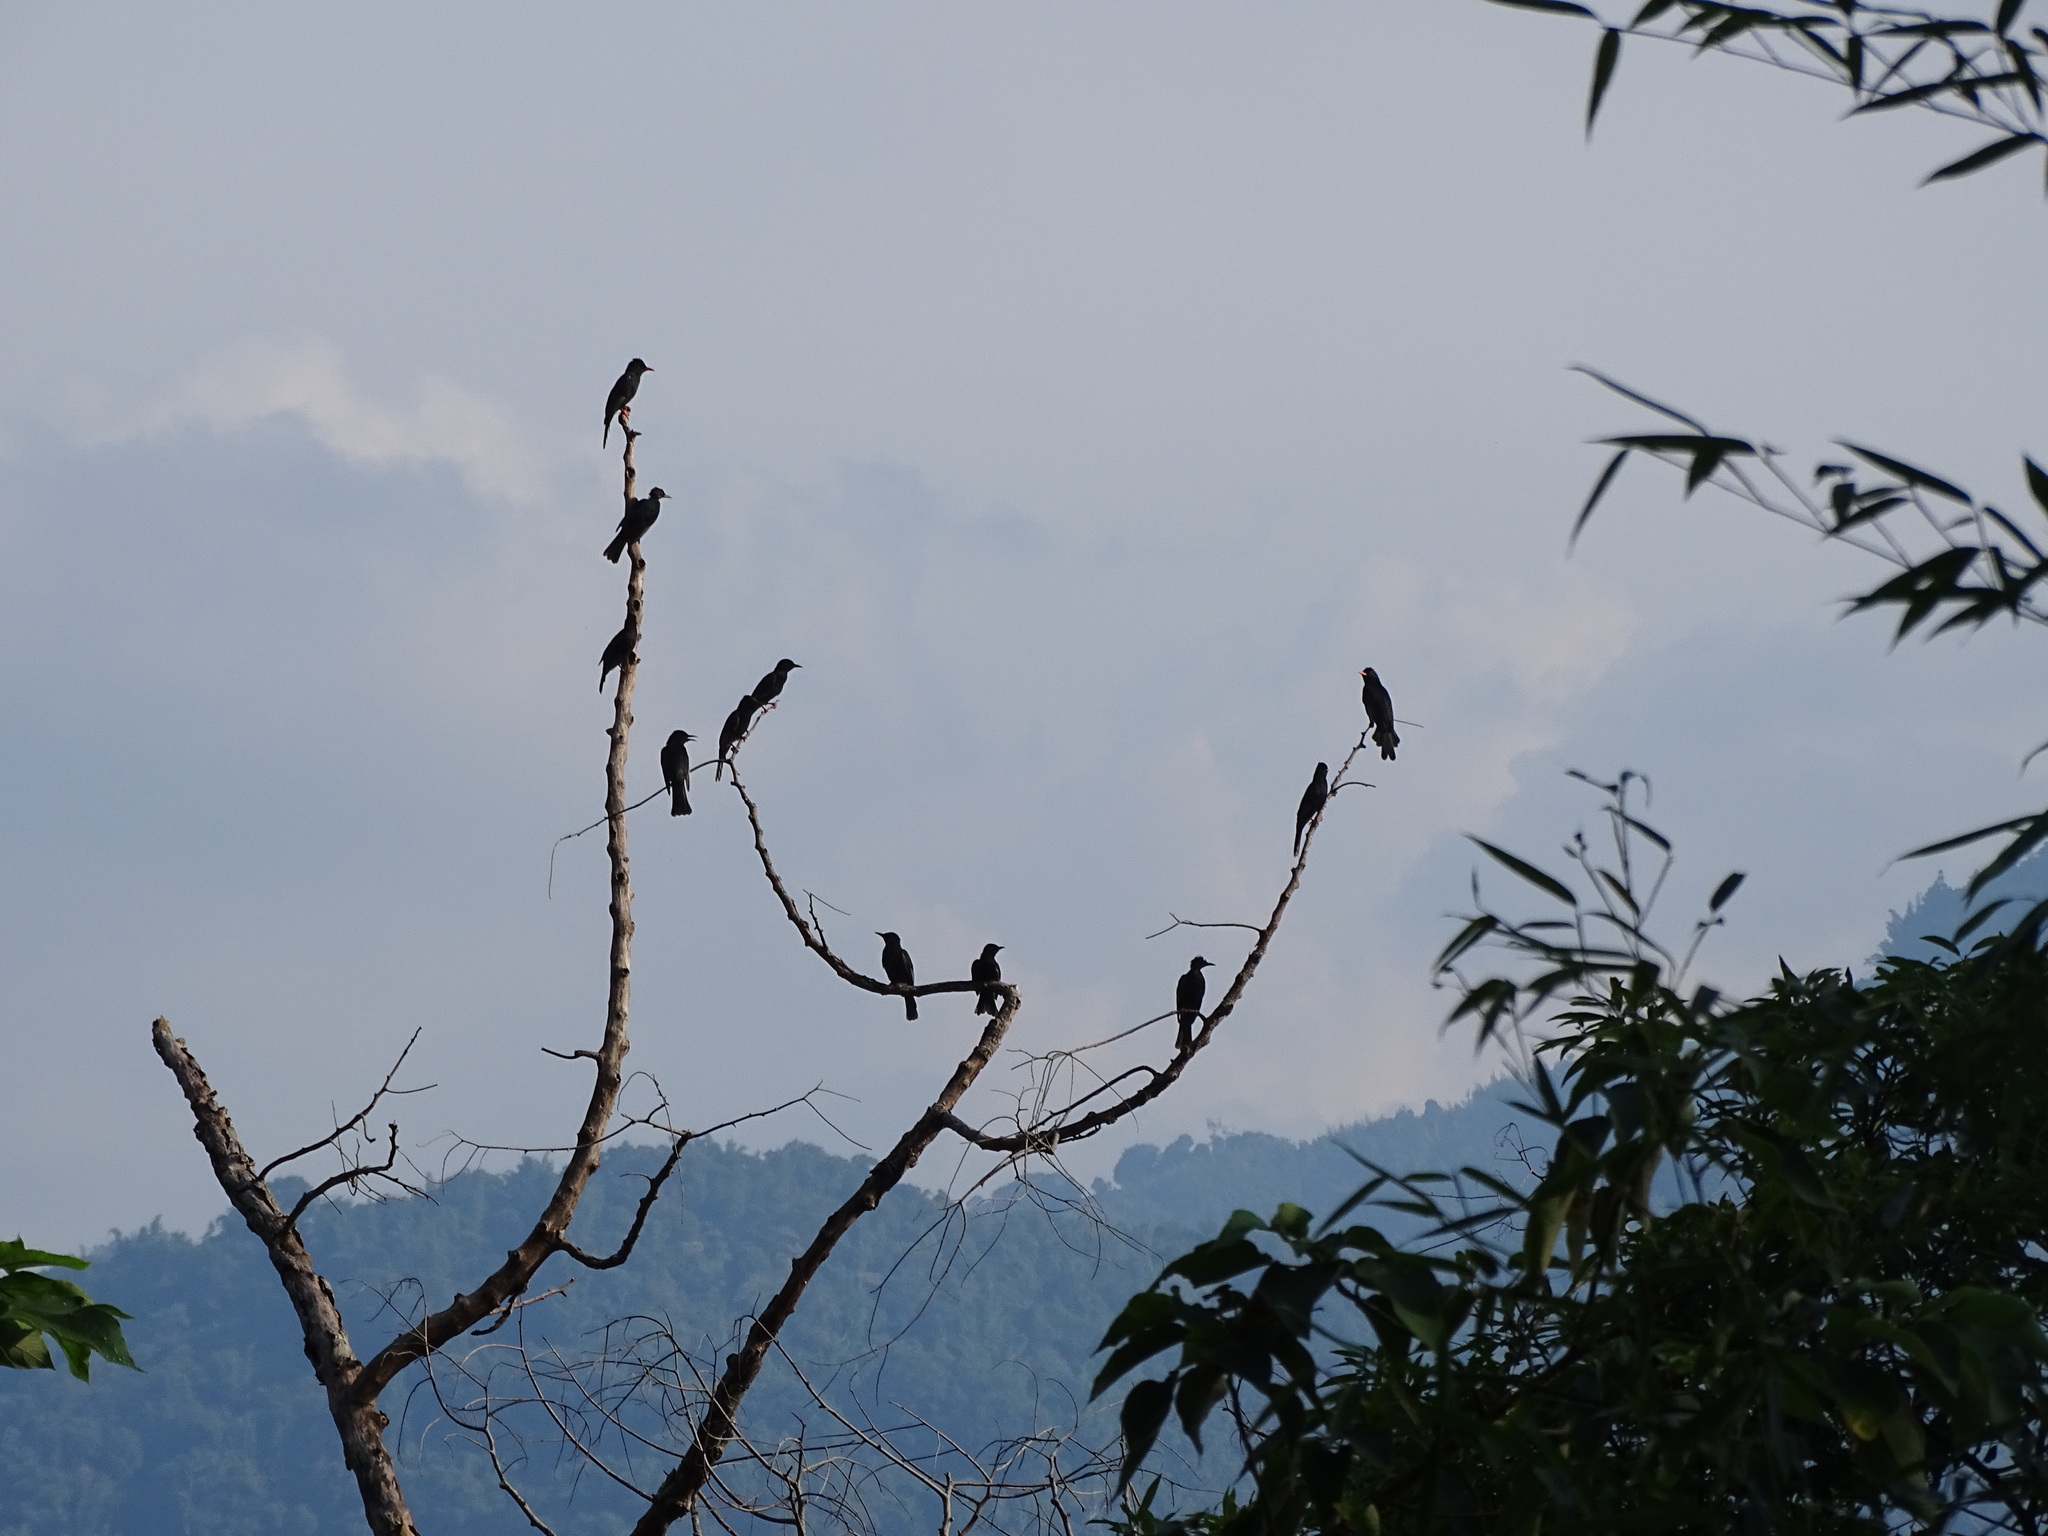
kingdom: Animalia
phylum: Chordata
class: Aves
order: Passeriformes
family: Pycnonotidae
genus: Hypsipetes
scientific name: Hypsipetes leucocephalus
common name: Black bulbul
